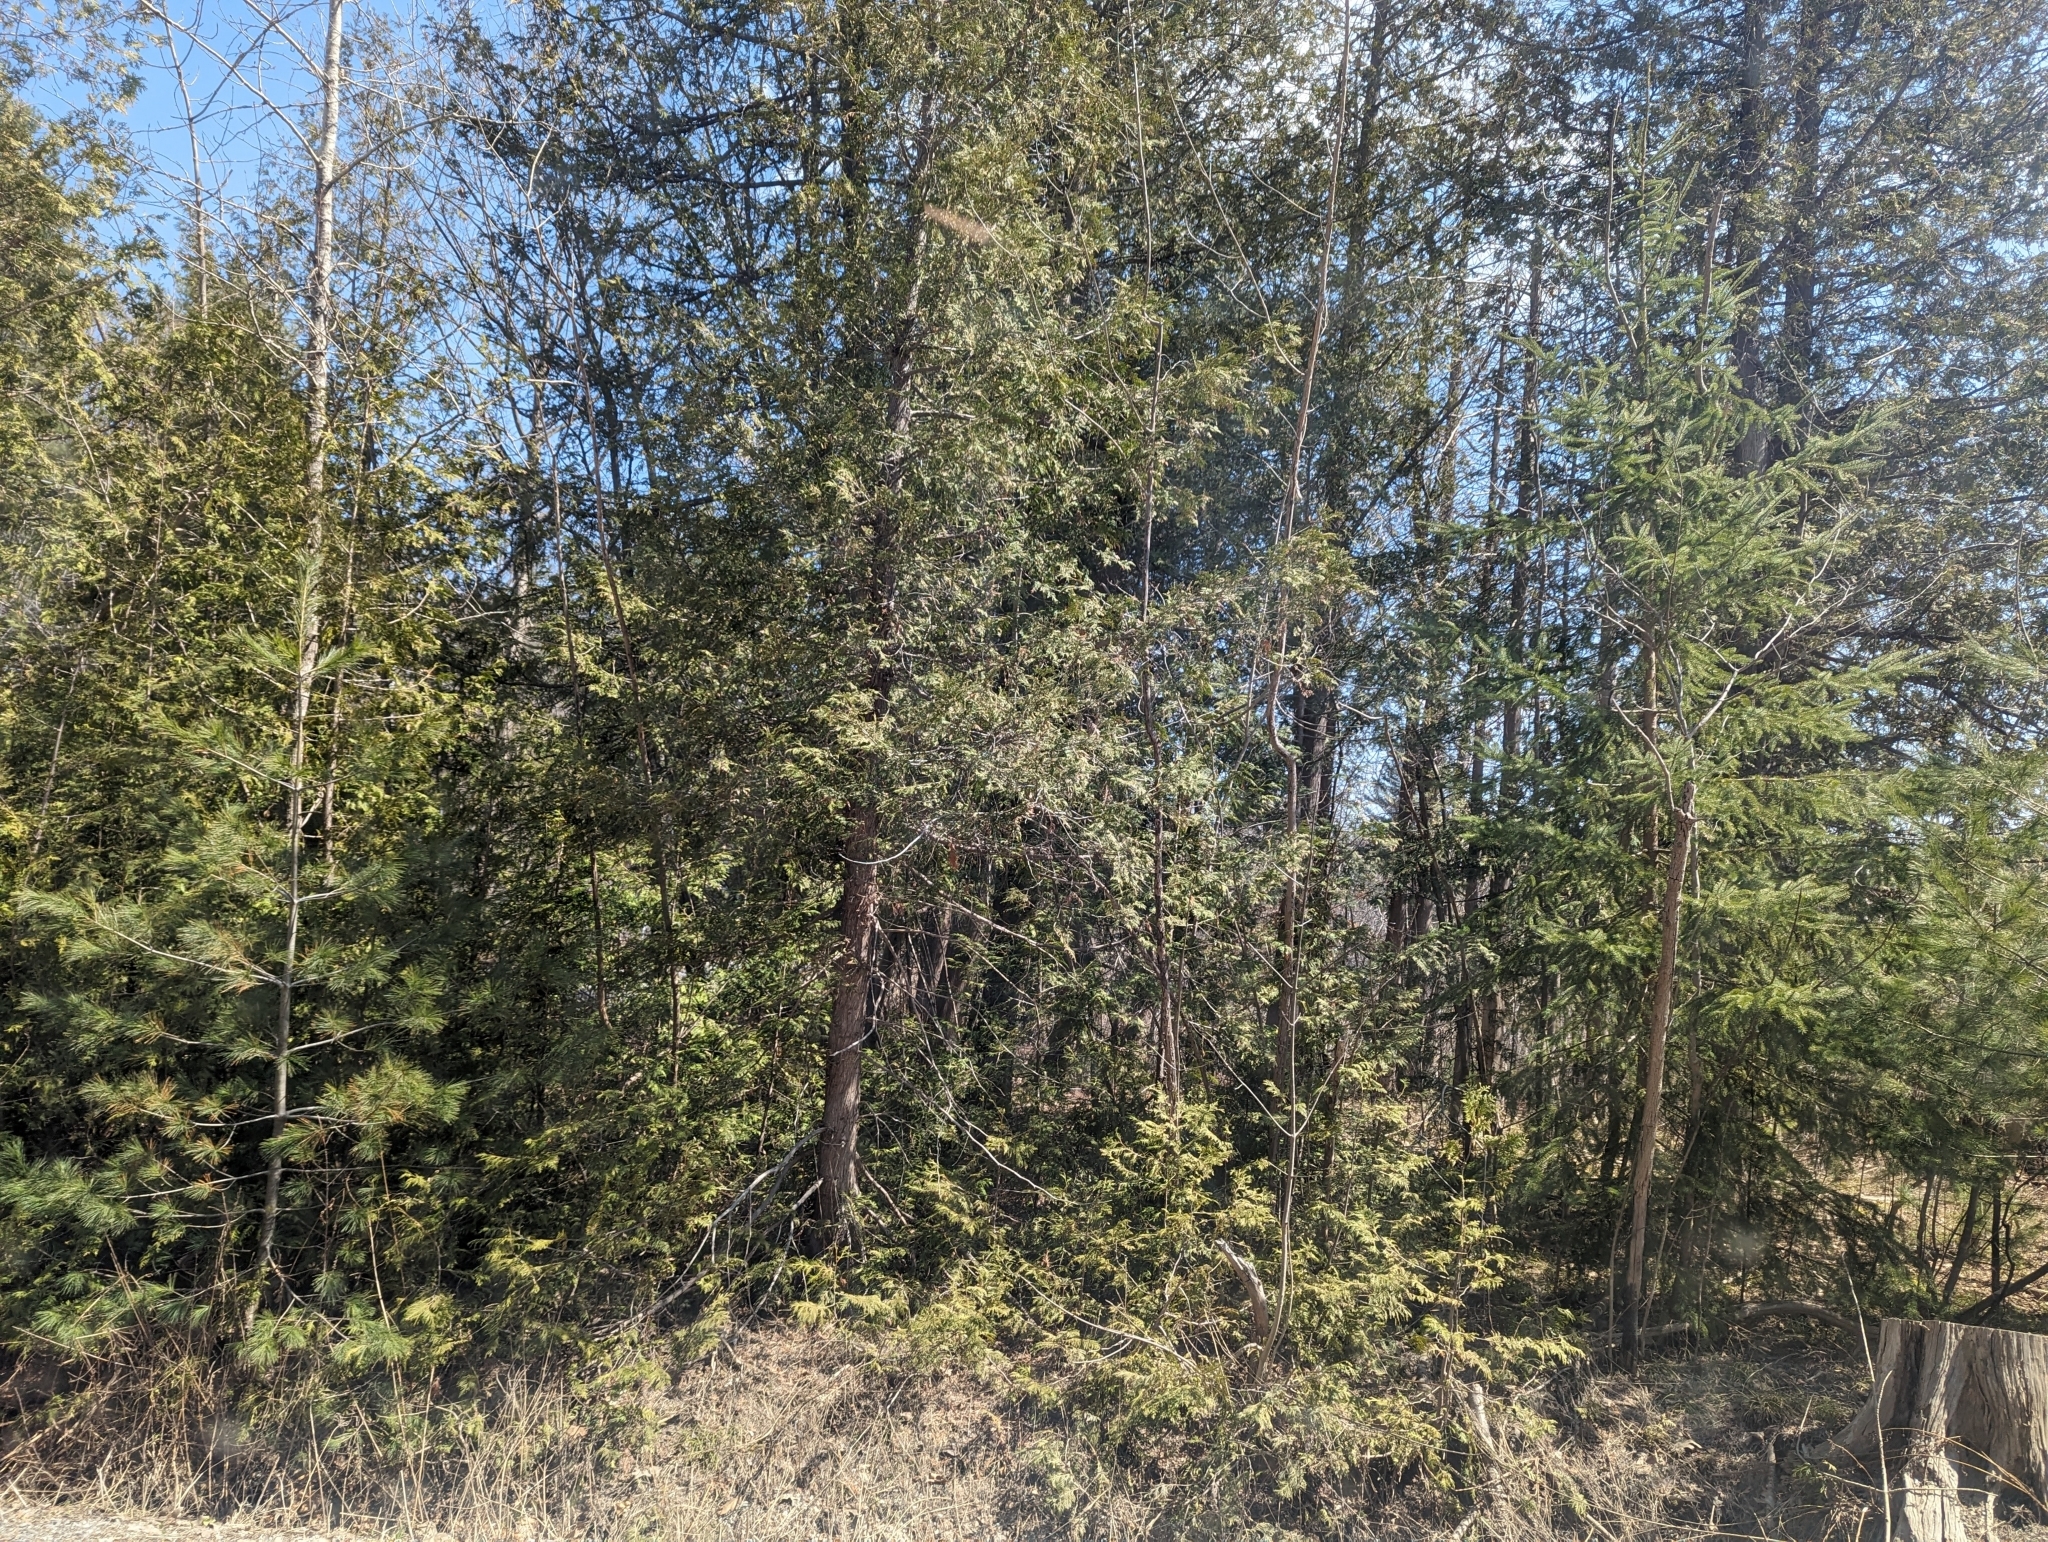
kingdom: Plantae
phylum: Tracheophyta
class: Pinopsida
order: Pinales
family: Cupressaceae
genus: Thuja
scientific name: Thuja occidentalis
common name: Northern white-cedar
